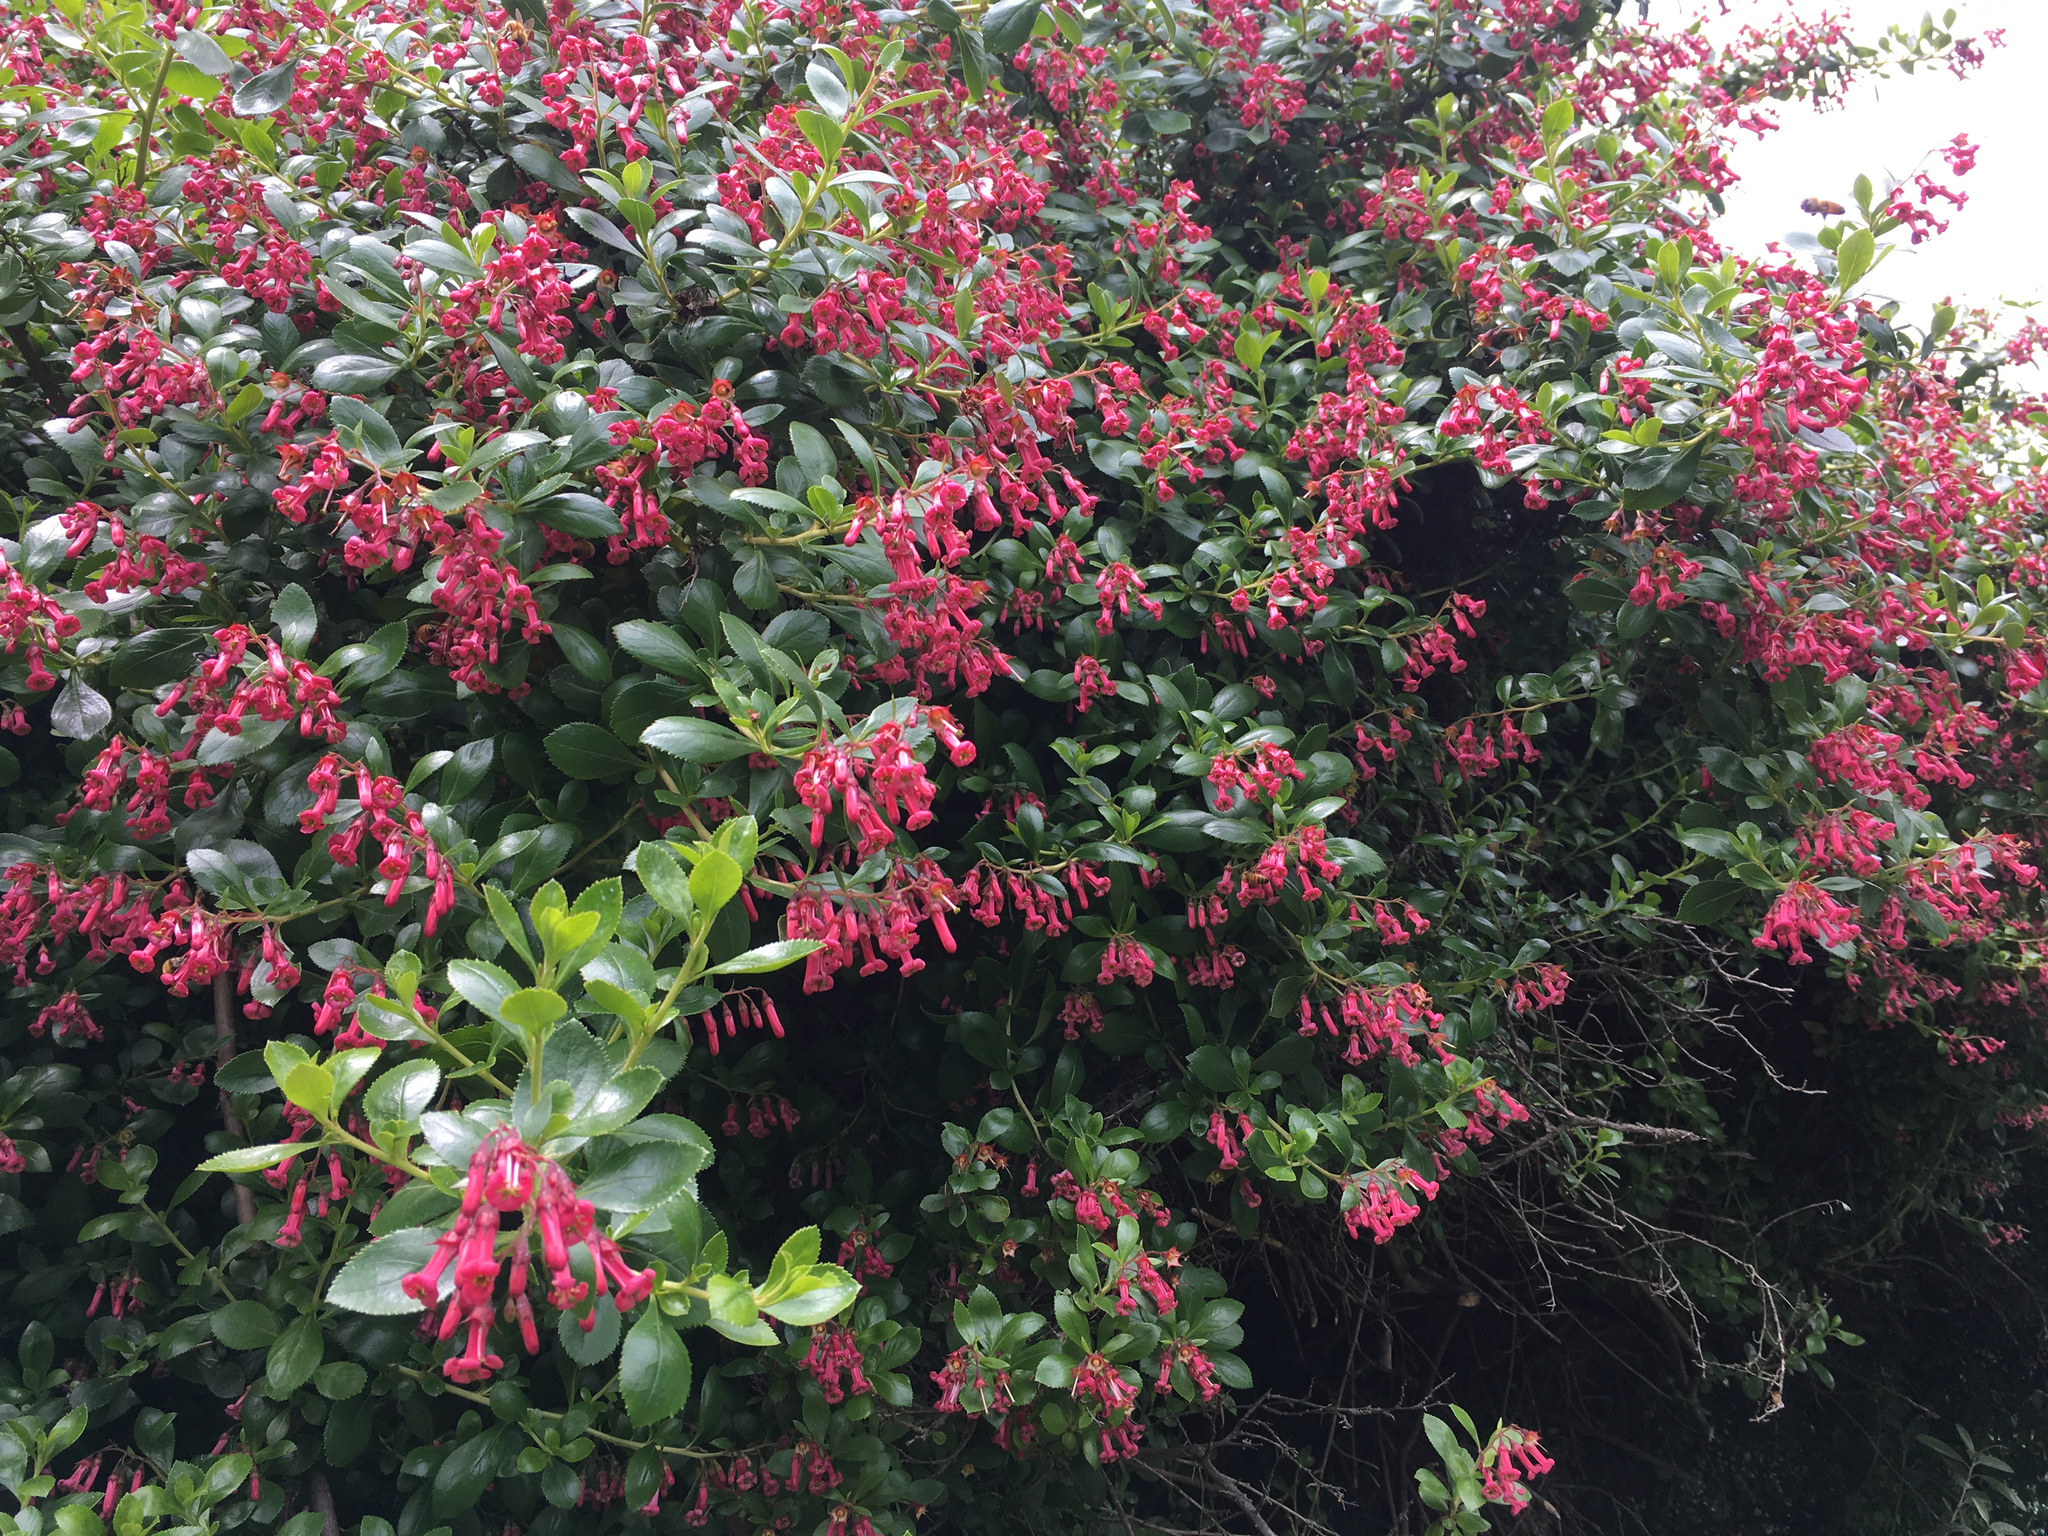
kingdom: Plantae
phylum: Tracheophyta
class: Magnoliopsida
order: Escalloniales
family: Escalloniaceae
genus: Escallonia
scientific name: Escallonia rubra
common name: Redclaws
